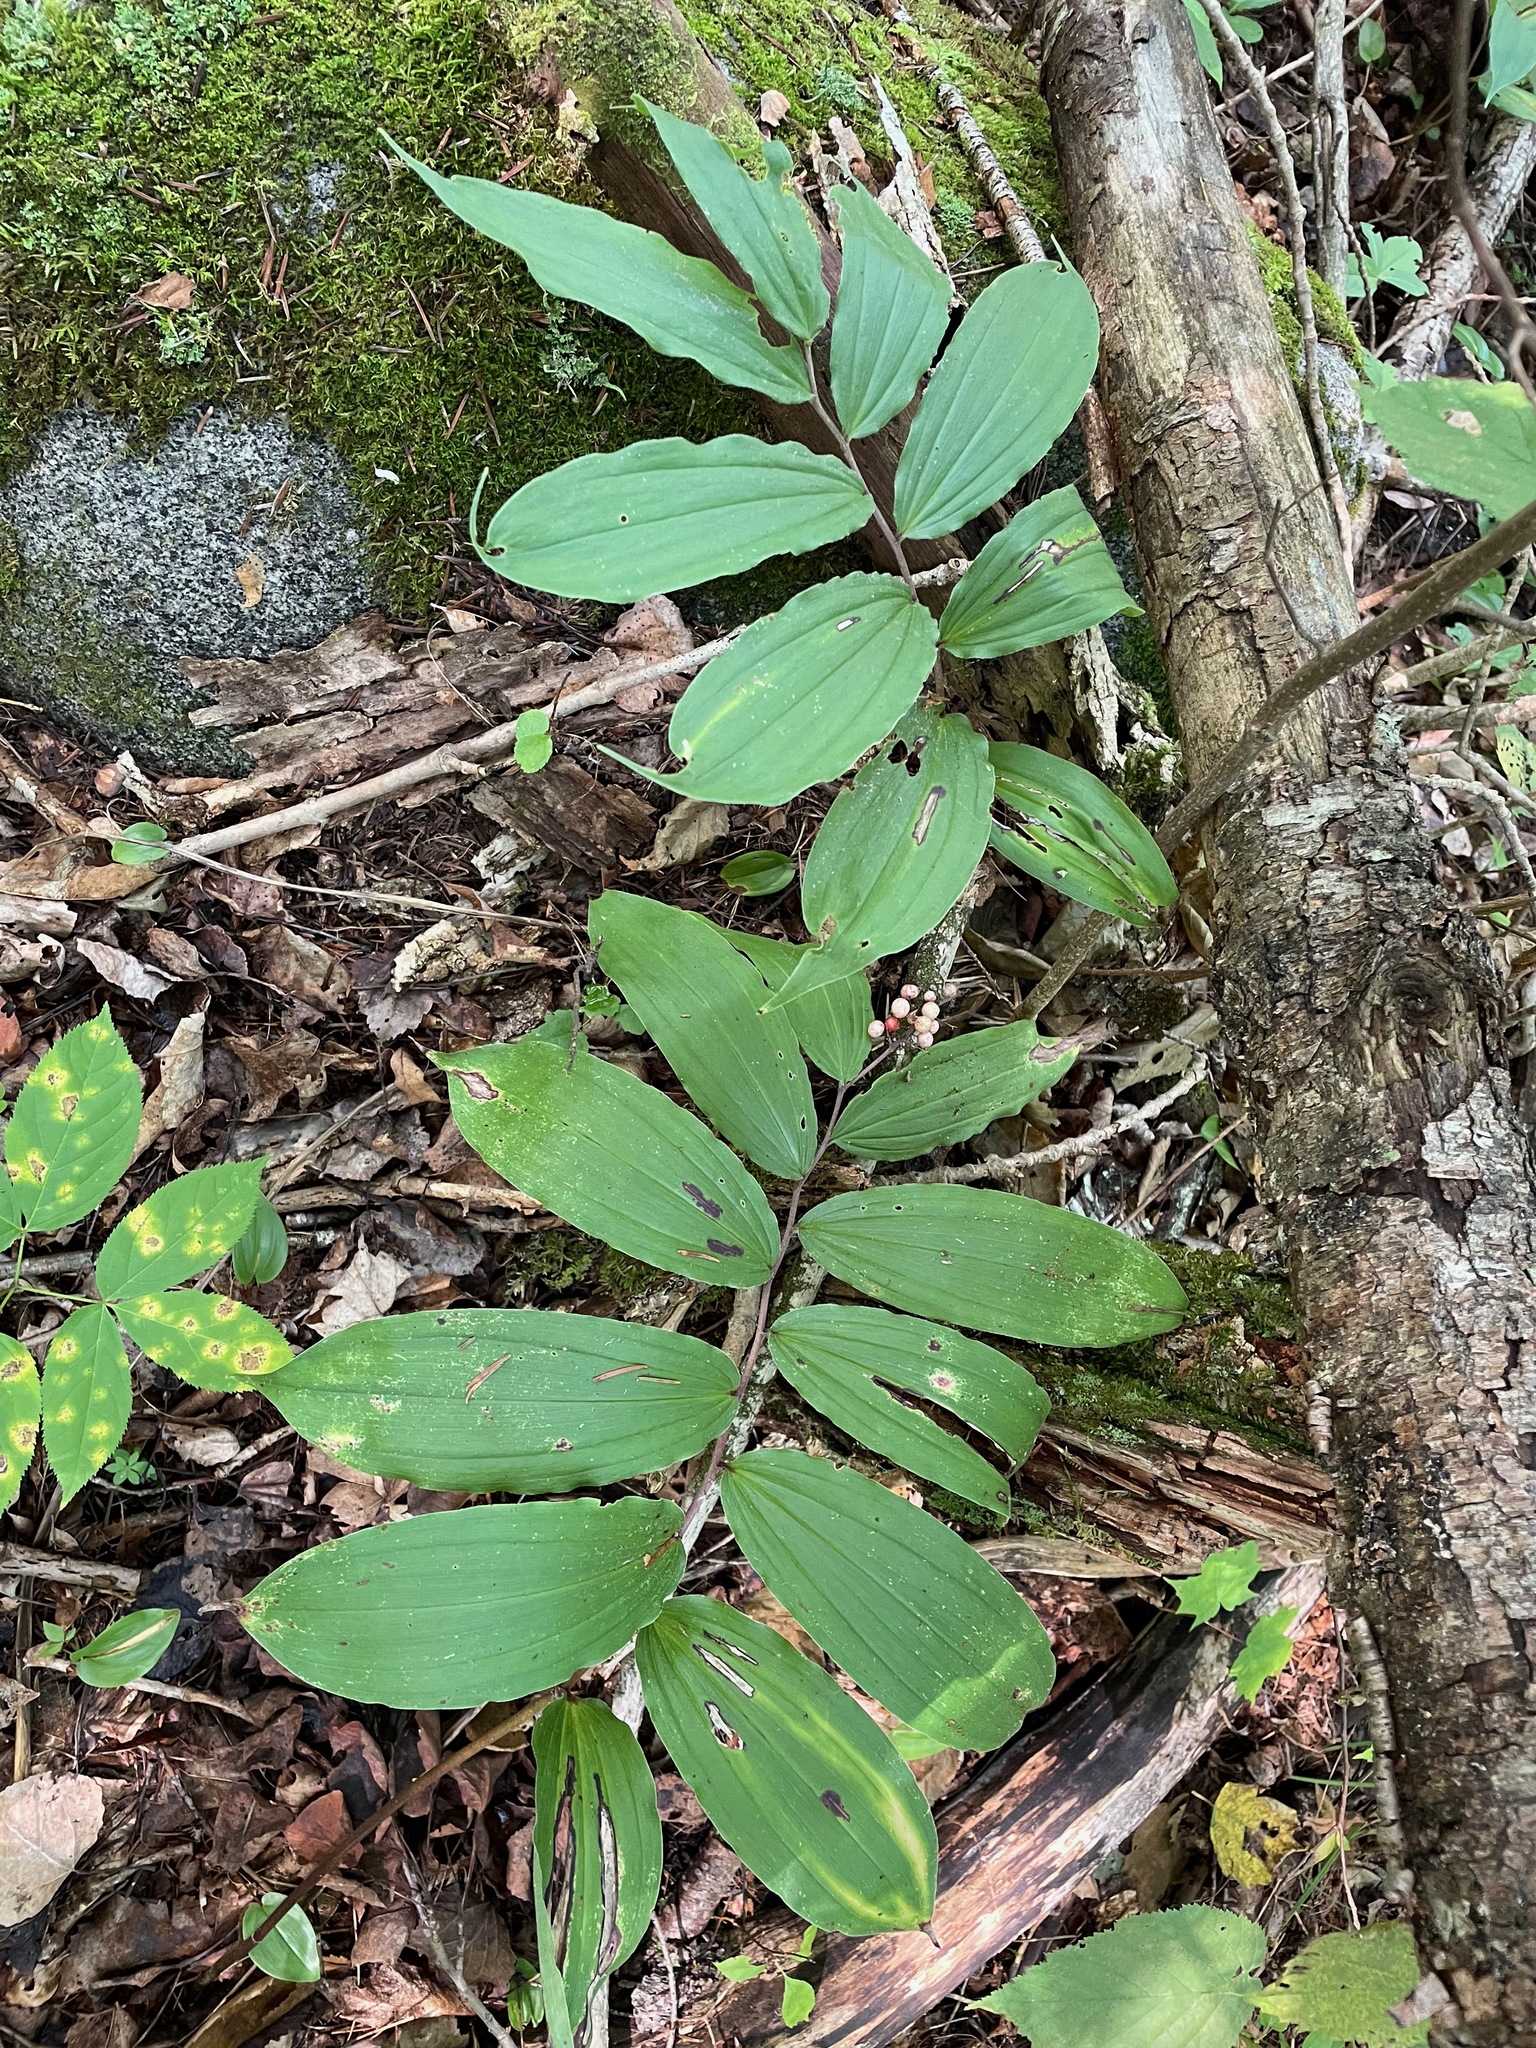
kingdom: Plantae
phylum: Tracheophyta
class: Liliopsida
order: Asparagales
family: Asparagaceae
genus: Maianthemum
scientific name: Maianthemum racemosum
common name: False spikenard
